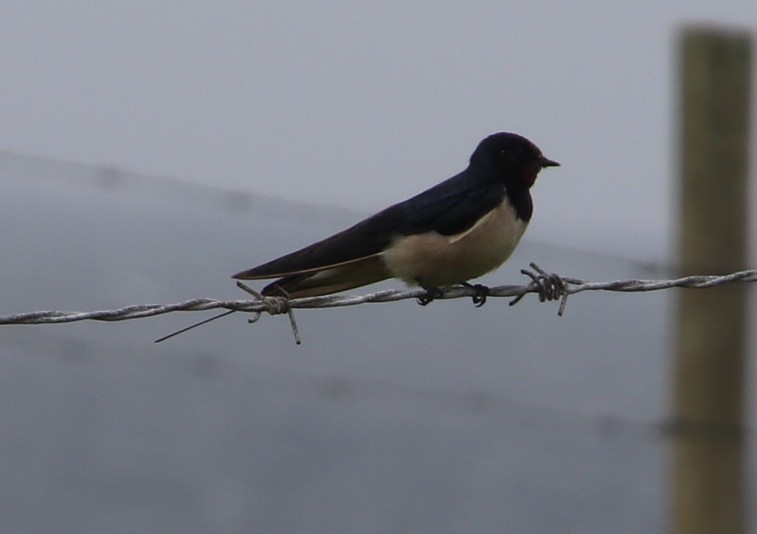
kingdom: Animalia
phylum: Chordata
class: Aves
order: Passeriformes
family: Hirundinidae
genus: Hirundo
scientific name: Hirundo rustica
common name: Barn swallow
